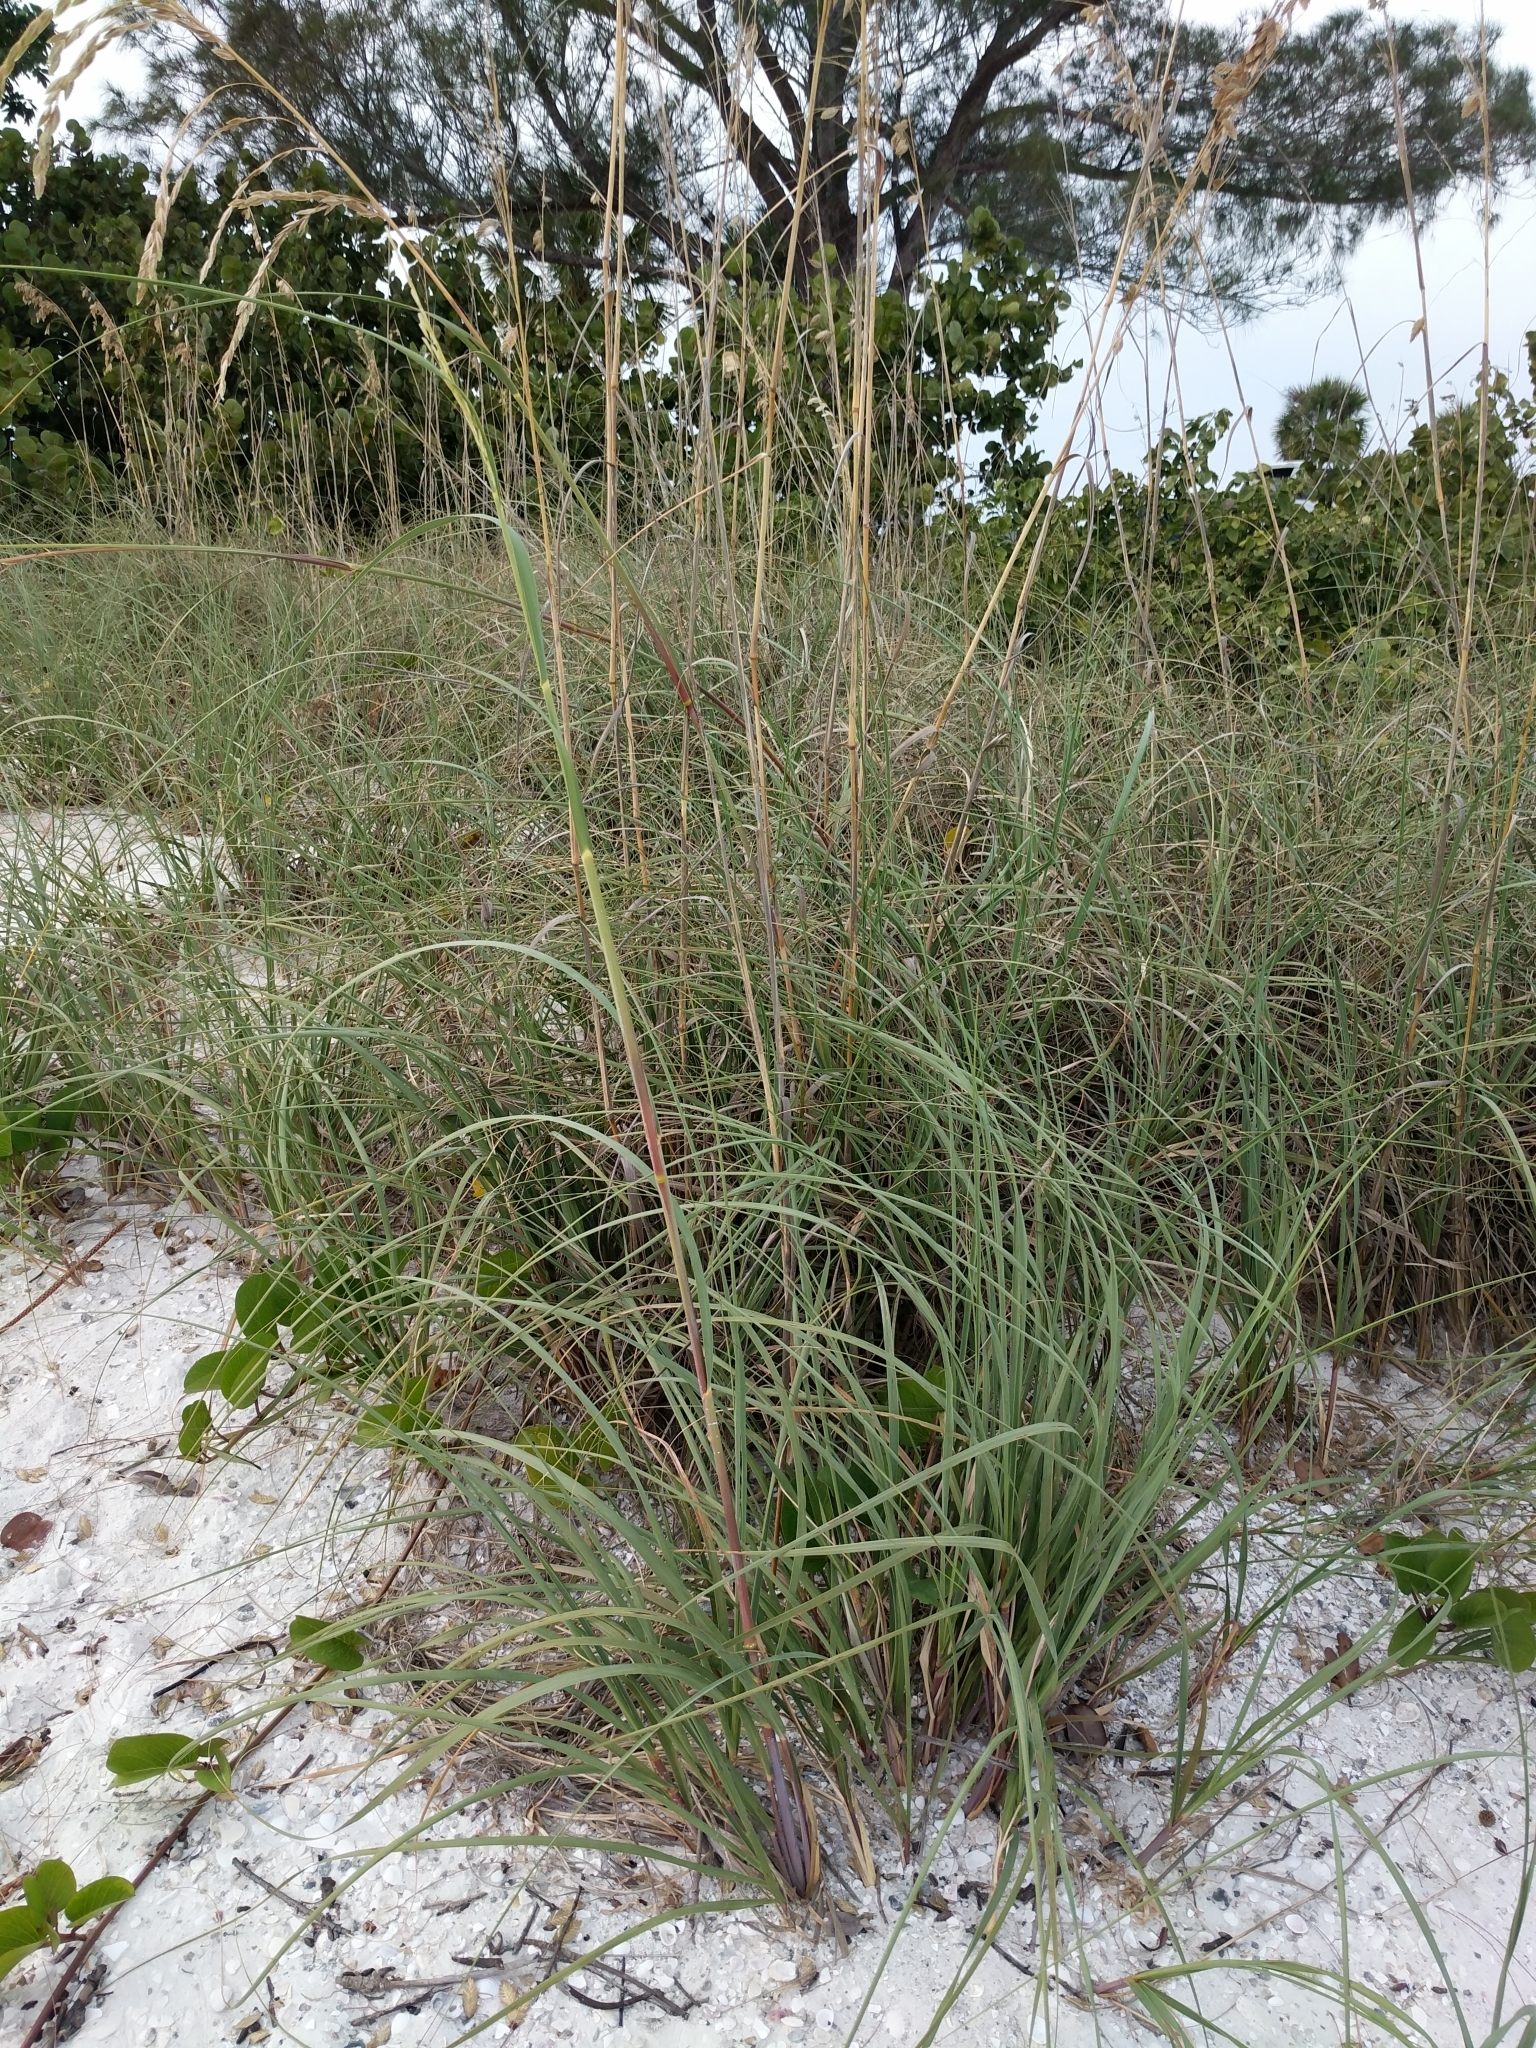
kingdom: Plantae
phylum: Tracheophyta
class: Liliopsida
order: Poales
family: Poaceae
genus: Uniola
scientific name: Uniola paniculata
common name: Seaside-oats
